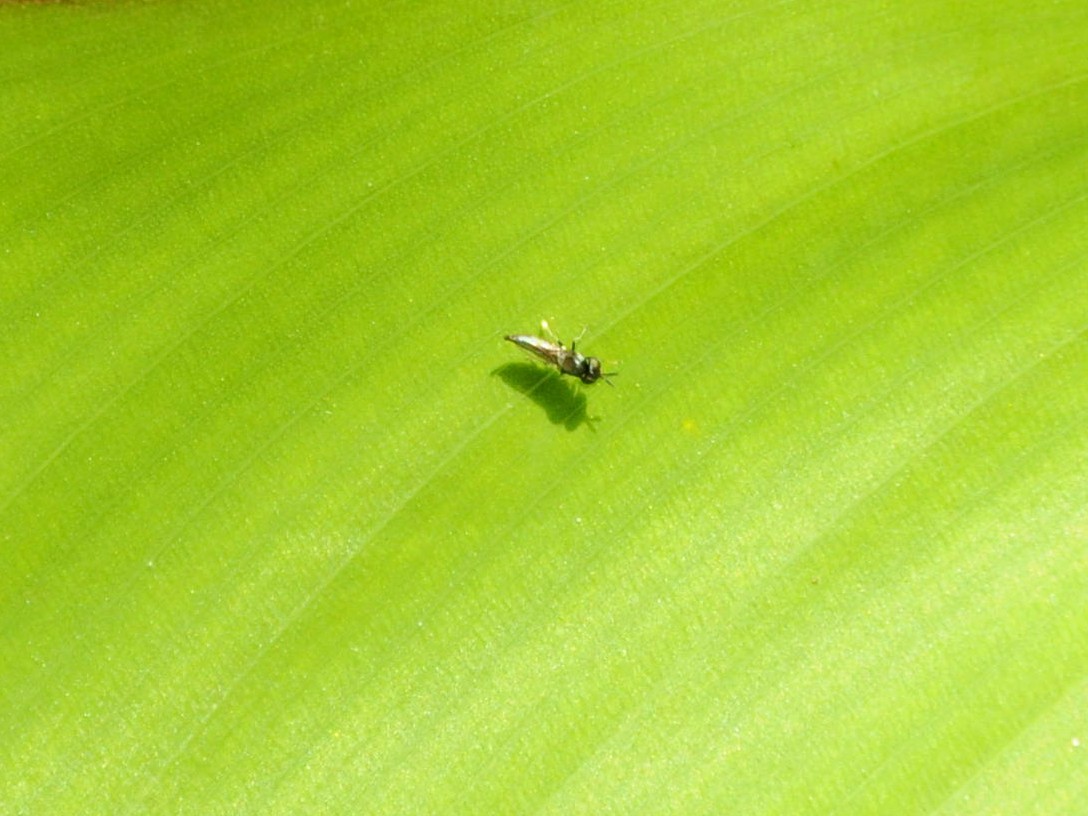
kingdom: Animalia
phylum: Arthropoda
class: Insecta
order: Diptera
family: Chloropidae
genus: Neoloxotaenia
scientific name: Neoloxotaenia gracilis
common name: Chloropid fly
